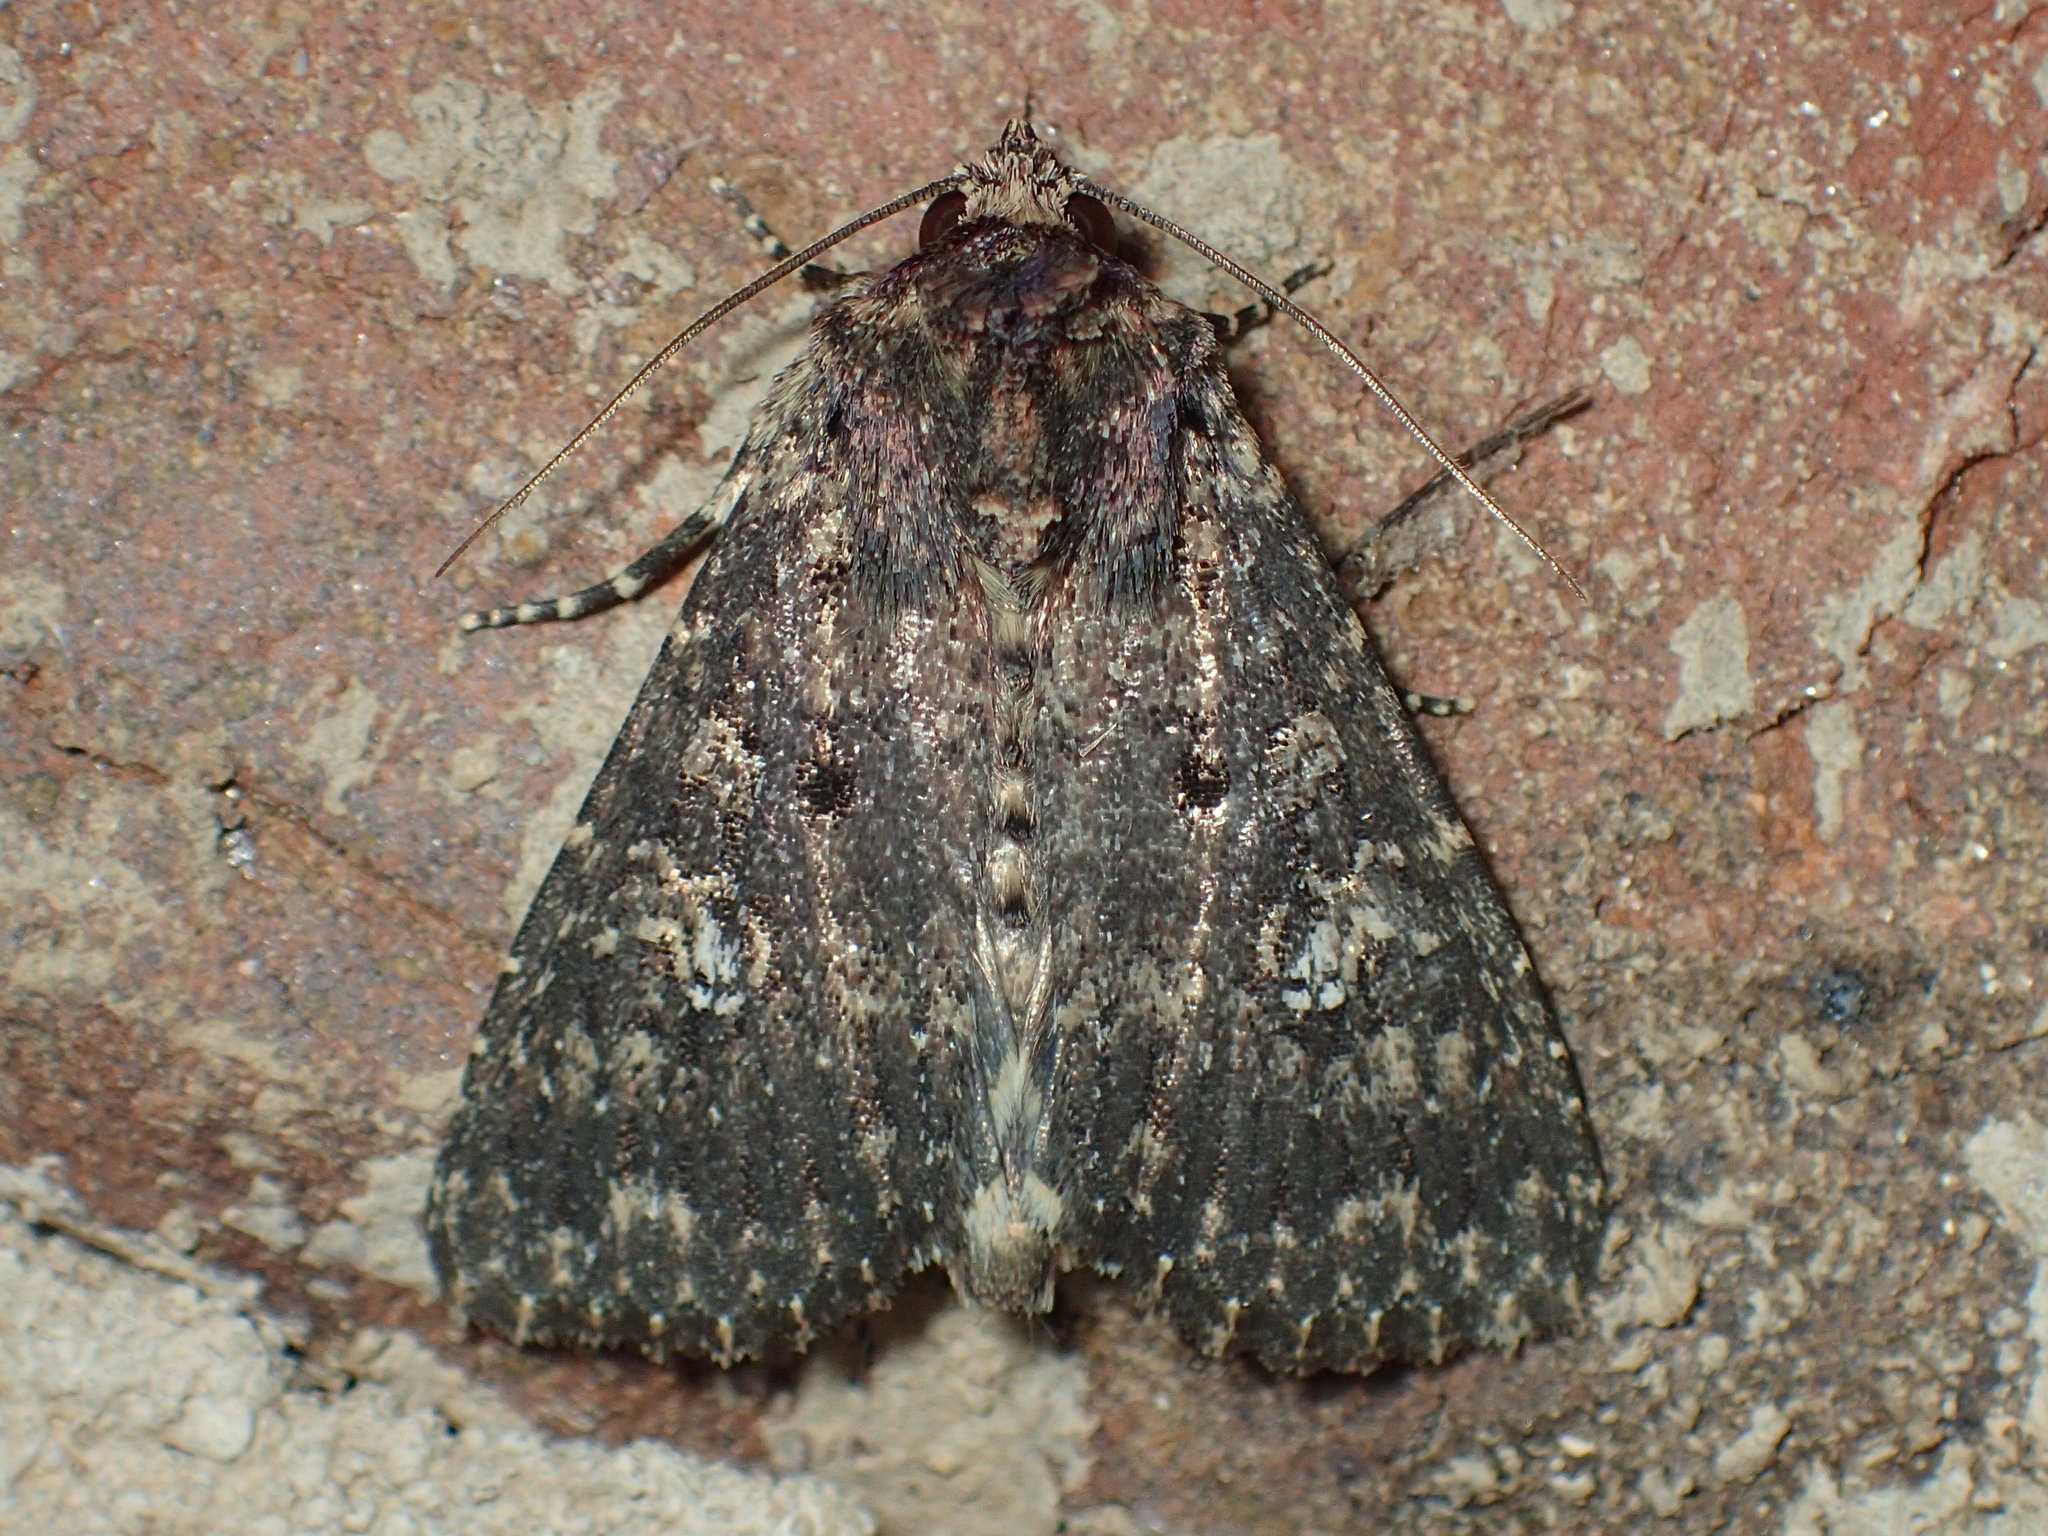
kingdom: Animalia
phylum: Arthropoda
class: Insecta
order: Lepidoptera
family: Noctuidae
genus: Condica
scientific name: Condica vecors
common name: Dusky groundling
